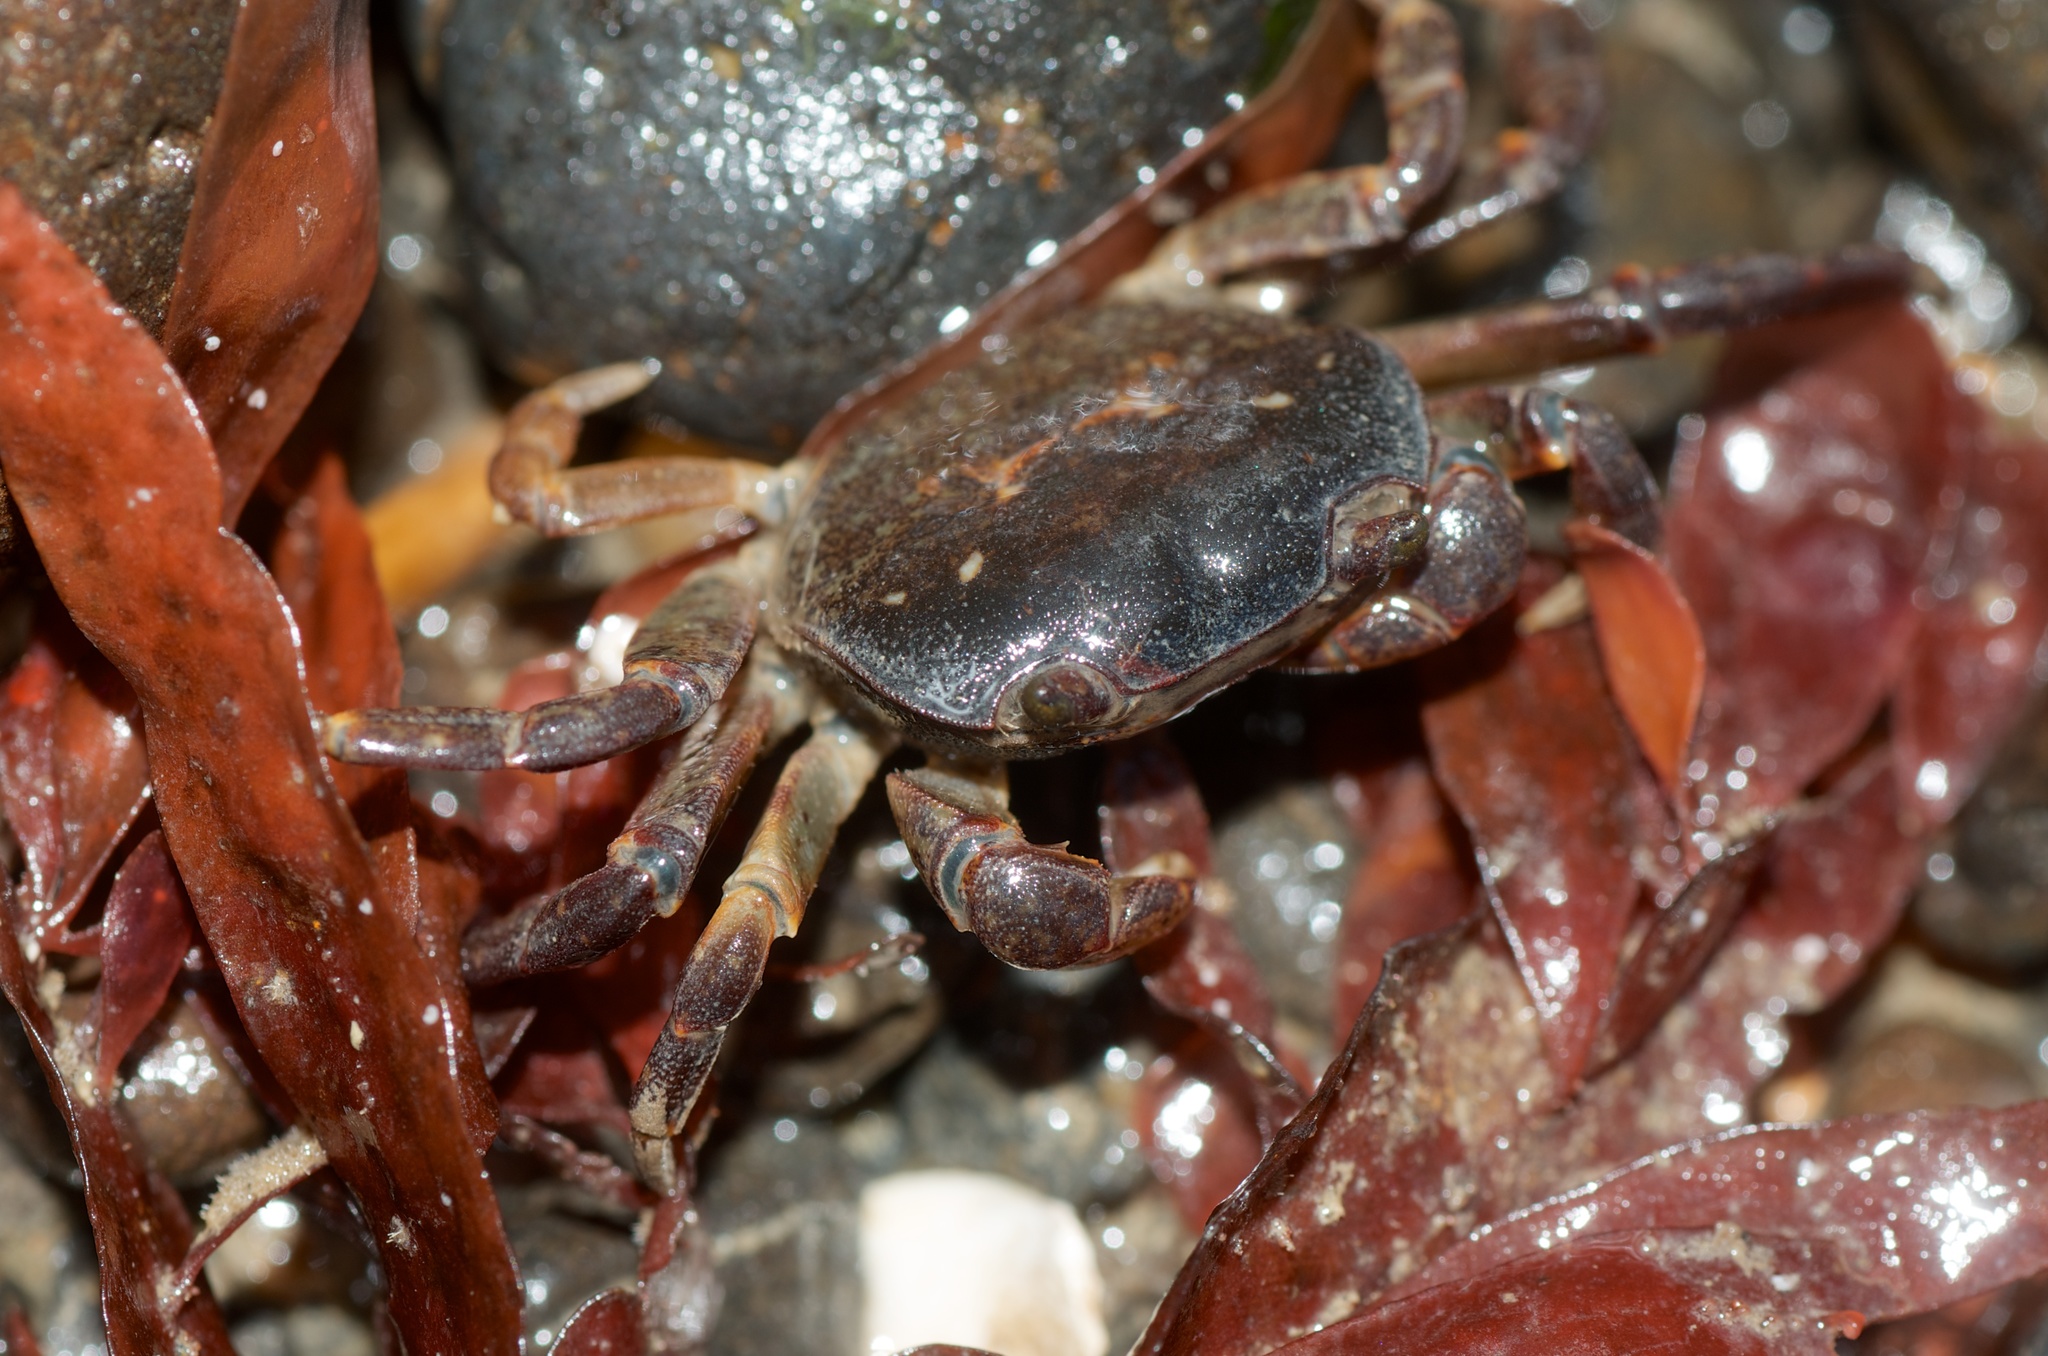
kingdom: Animalia
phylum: Arthropoda
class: Malacostraca
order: Decapoda
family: Varunidae
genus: Cyclograpsus
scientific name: Cyclograpsus lavauxi
